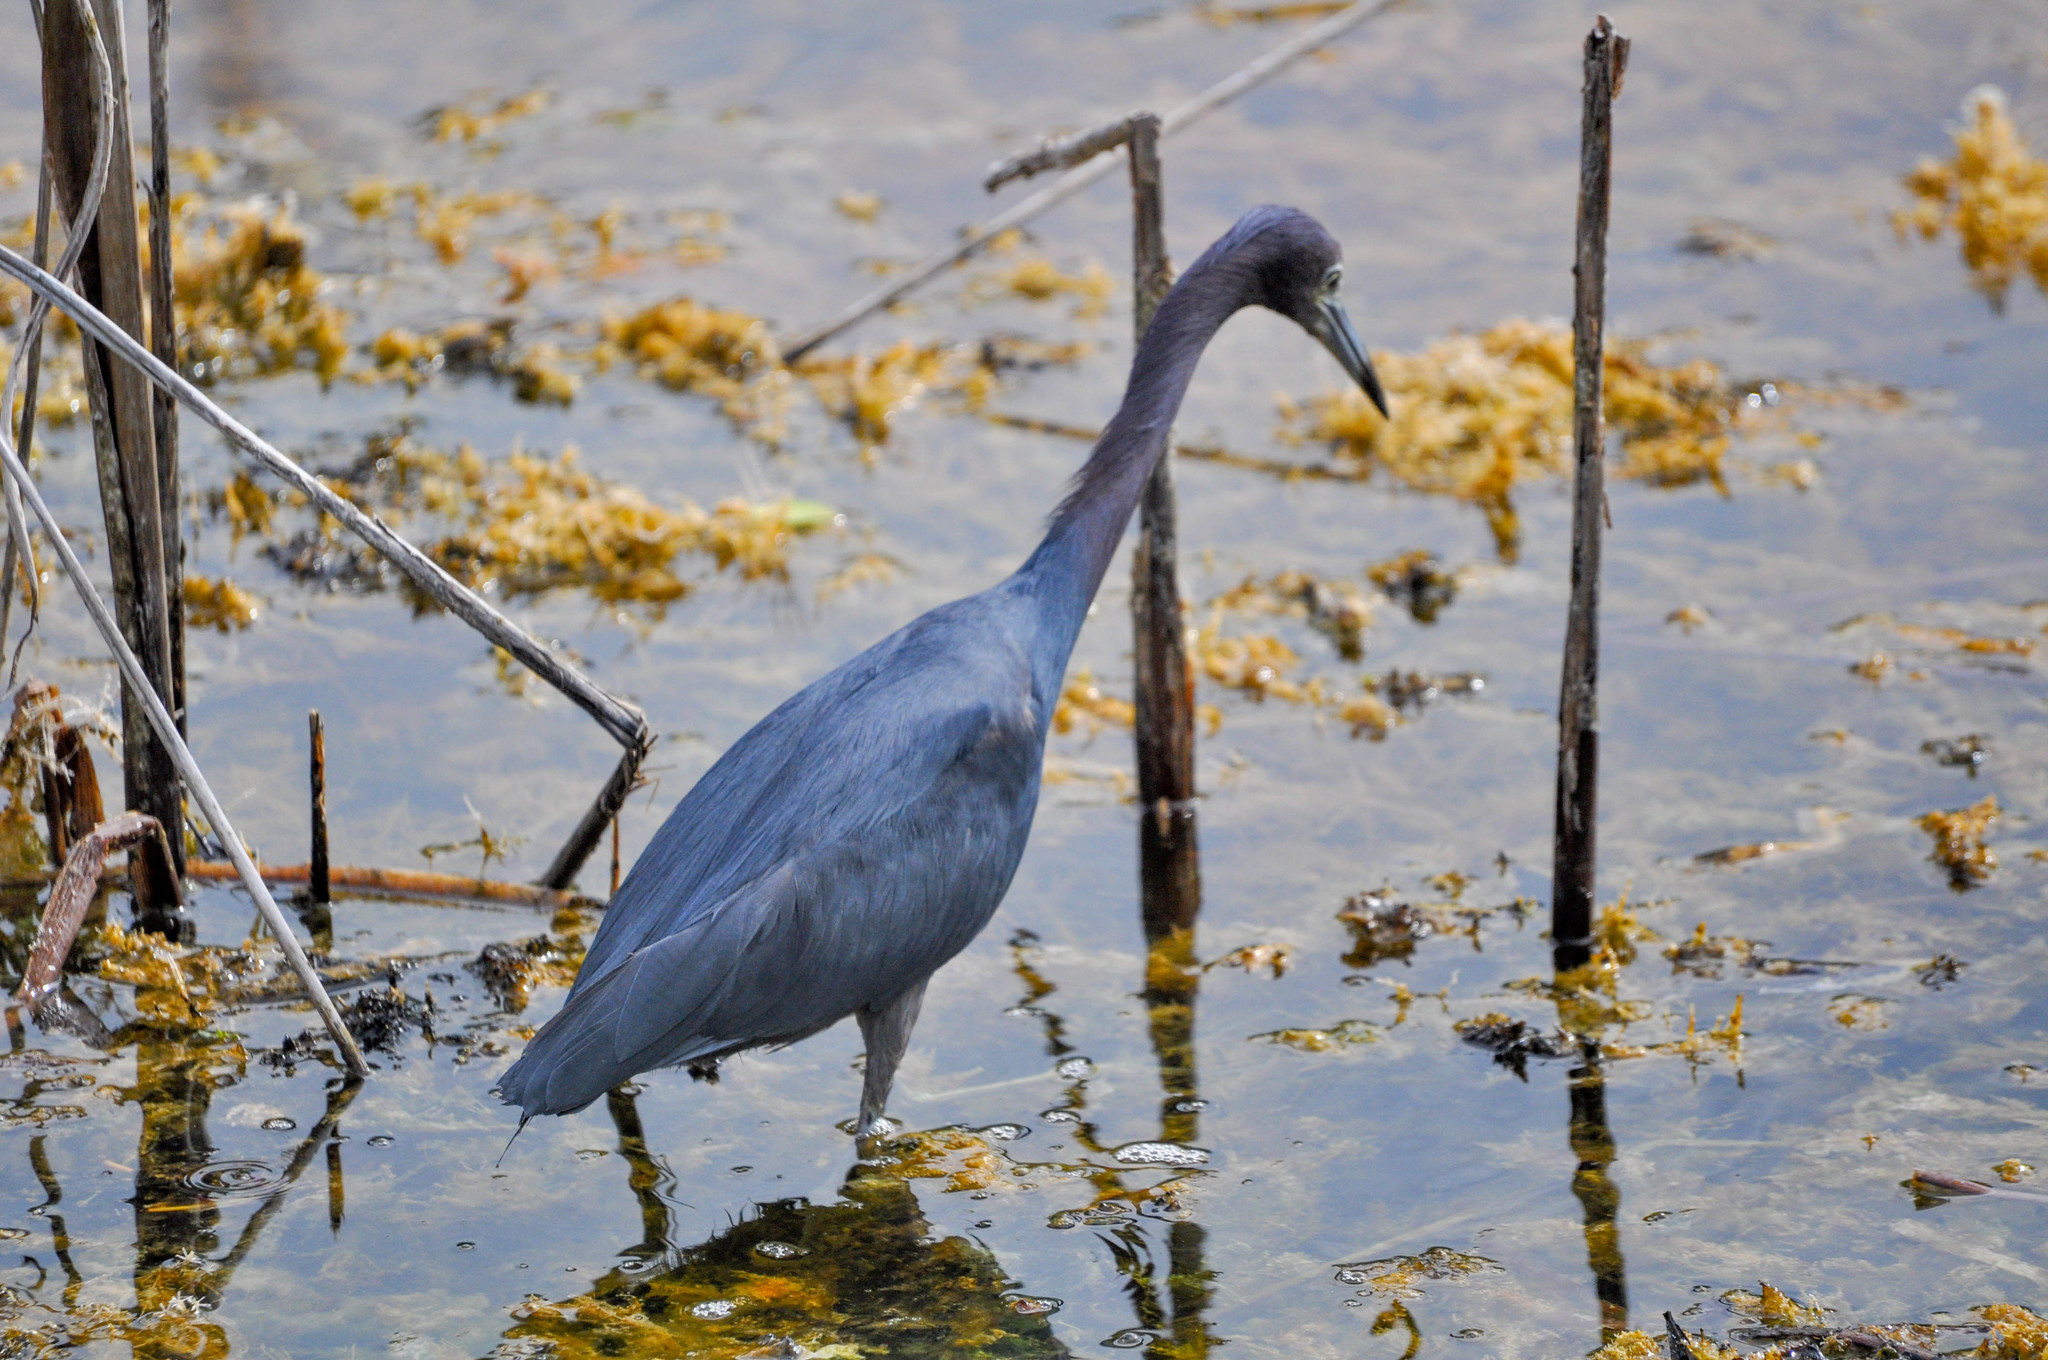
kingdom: Animalia
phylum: Chordata
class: Aves
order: Pelecaniformes
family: Ardeidae
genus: Egretta
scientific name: Egretta caerulea
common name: Little blue heron
